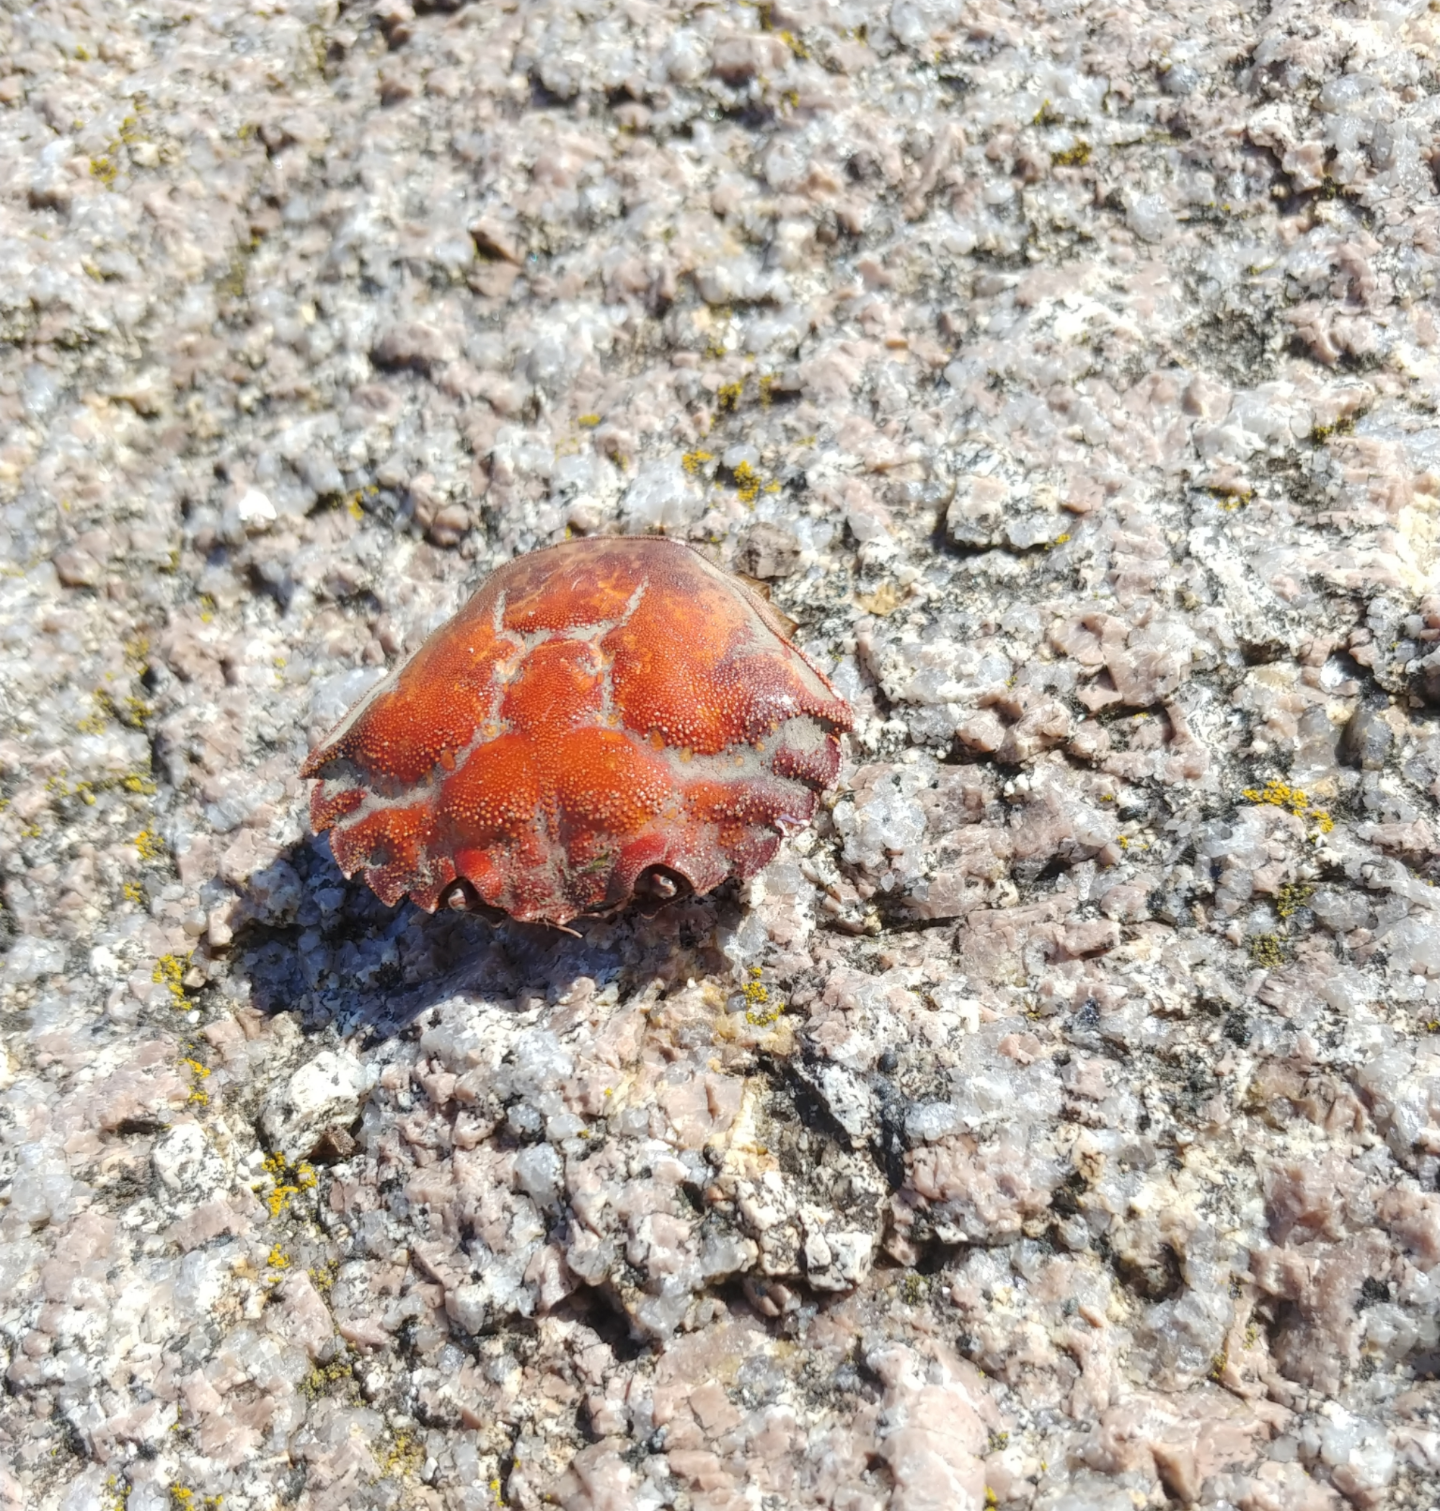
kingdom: Animalia
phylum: Arthropoda
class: Malacostraca
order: Decapoda
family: Carcinidae
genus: Carcinus
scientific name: Carcinus maenas
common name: European green crab
